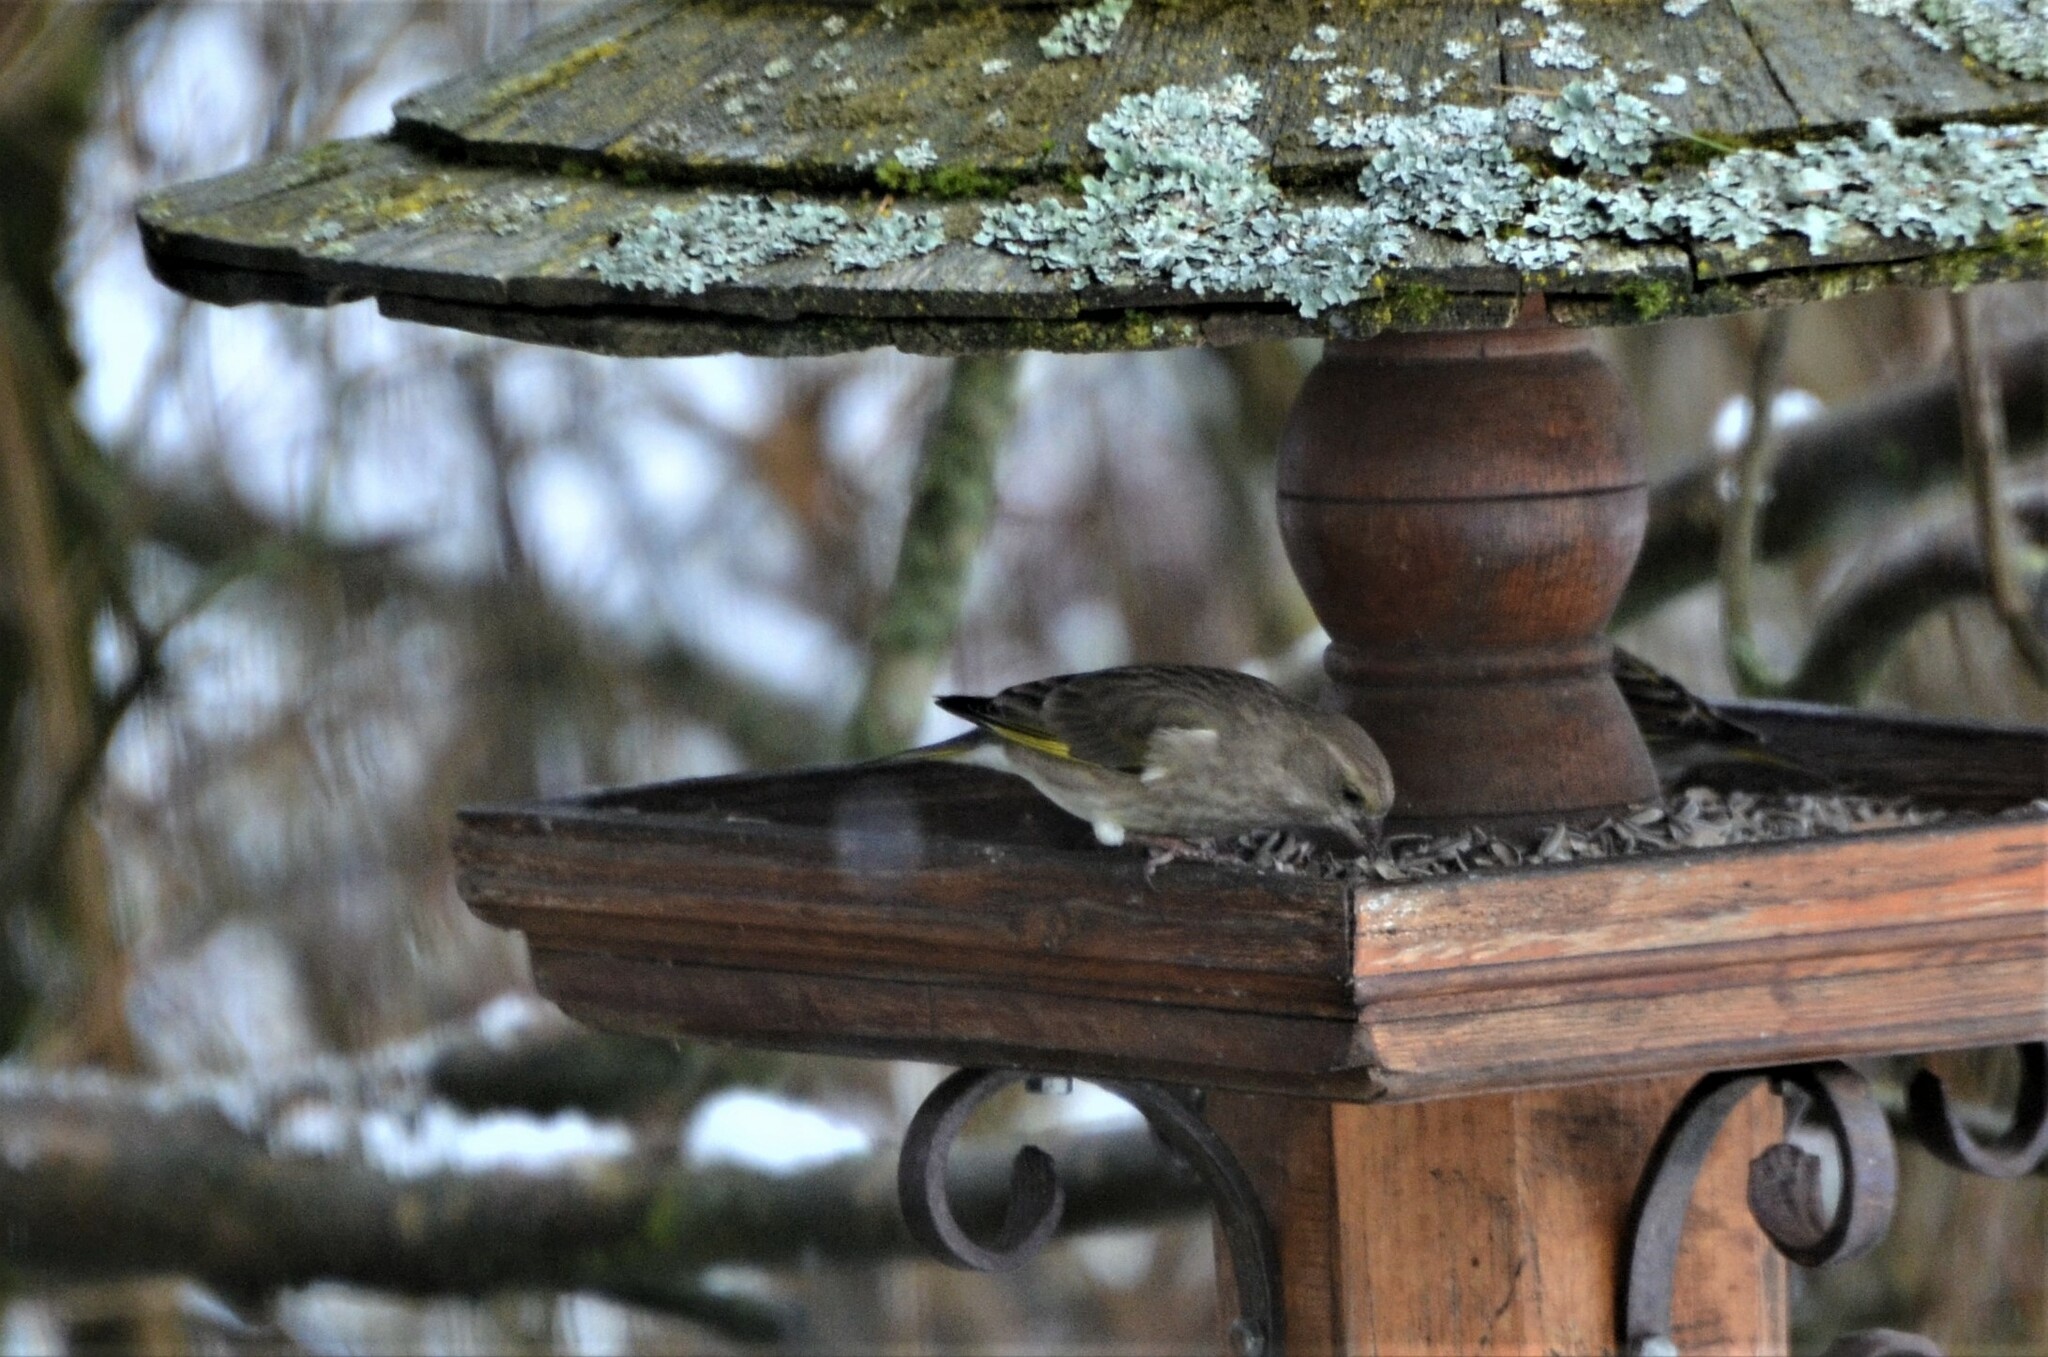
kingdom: Plantae
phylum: Tracheophyta
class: Liliopsida
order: Poales
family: Poaceae
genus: Chloris
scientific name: Chloris chloris
